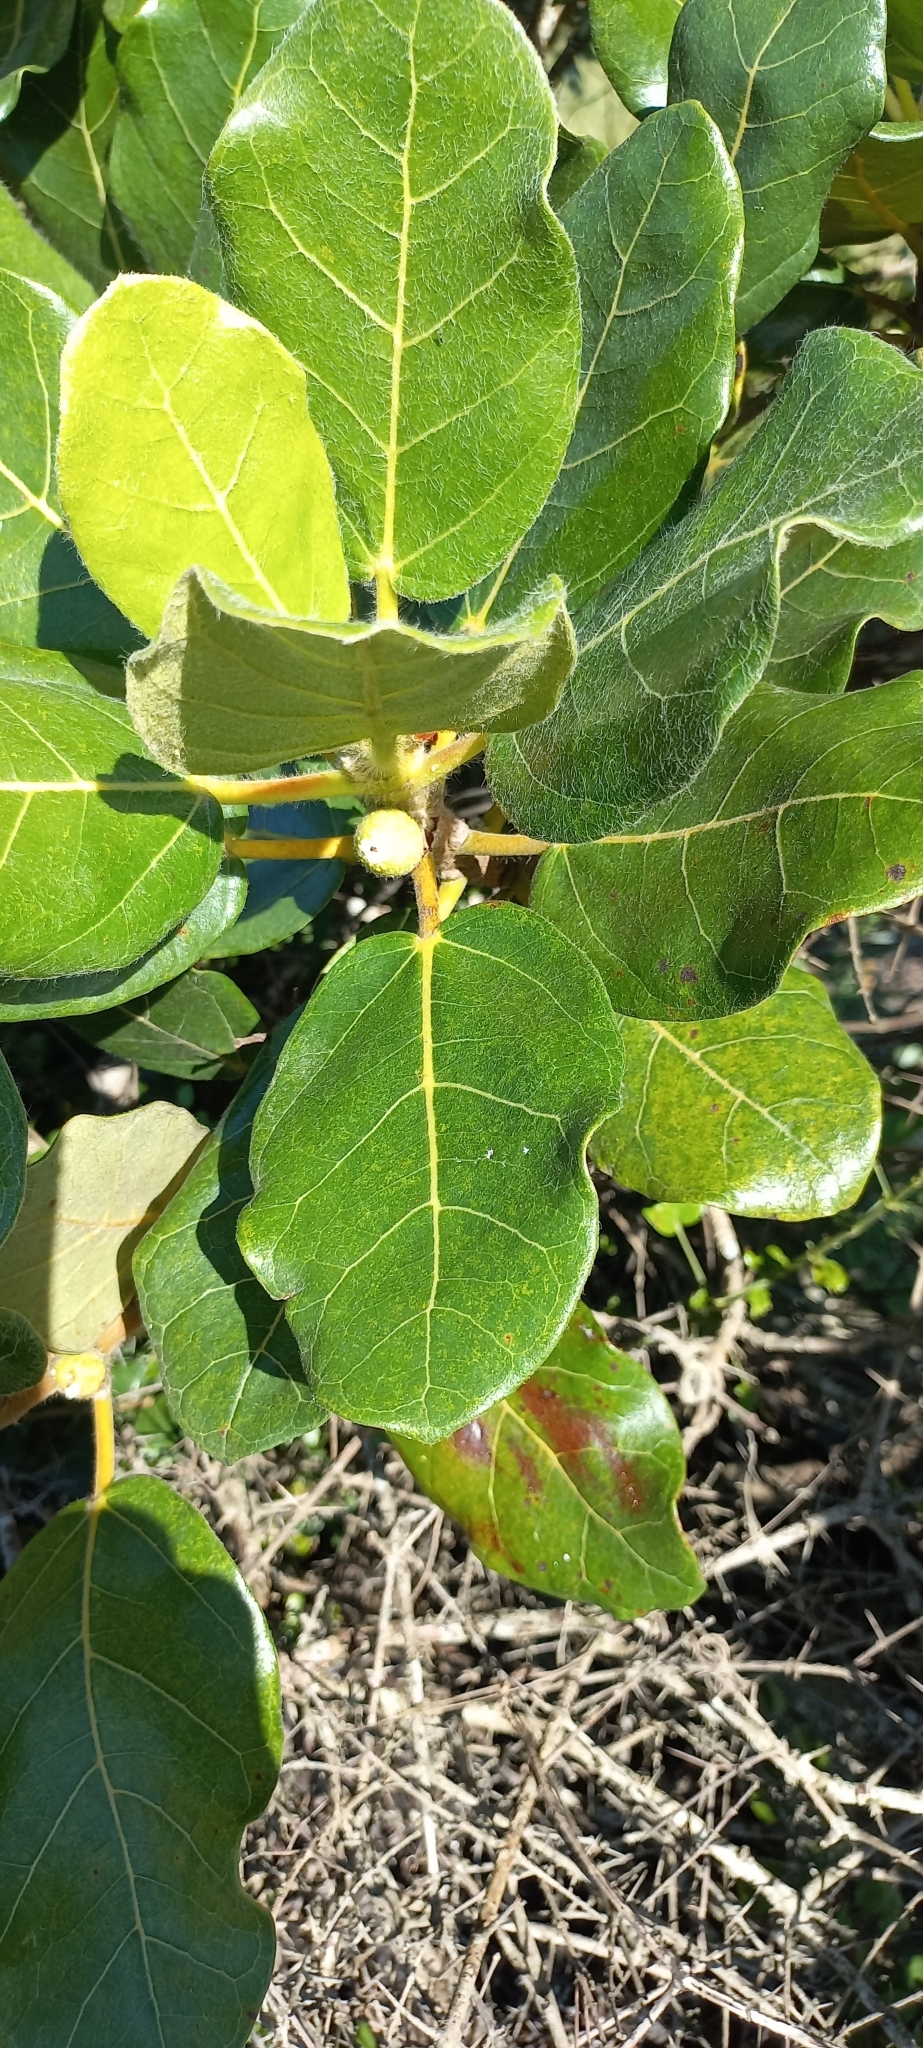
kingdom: Plantae
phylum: Tracheophyta
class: Magnoliopsida
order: Rosales
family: Moraceae
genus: Ficus
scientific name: Ficus glumosa
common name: Hairy rock fig
